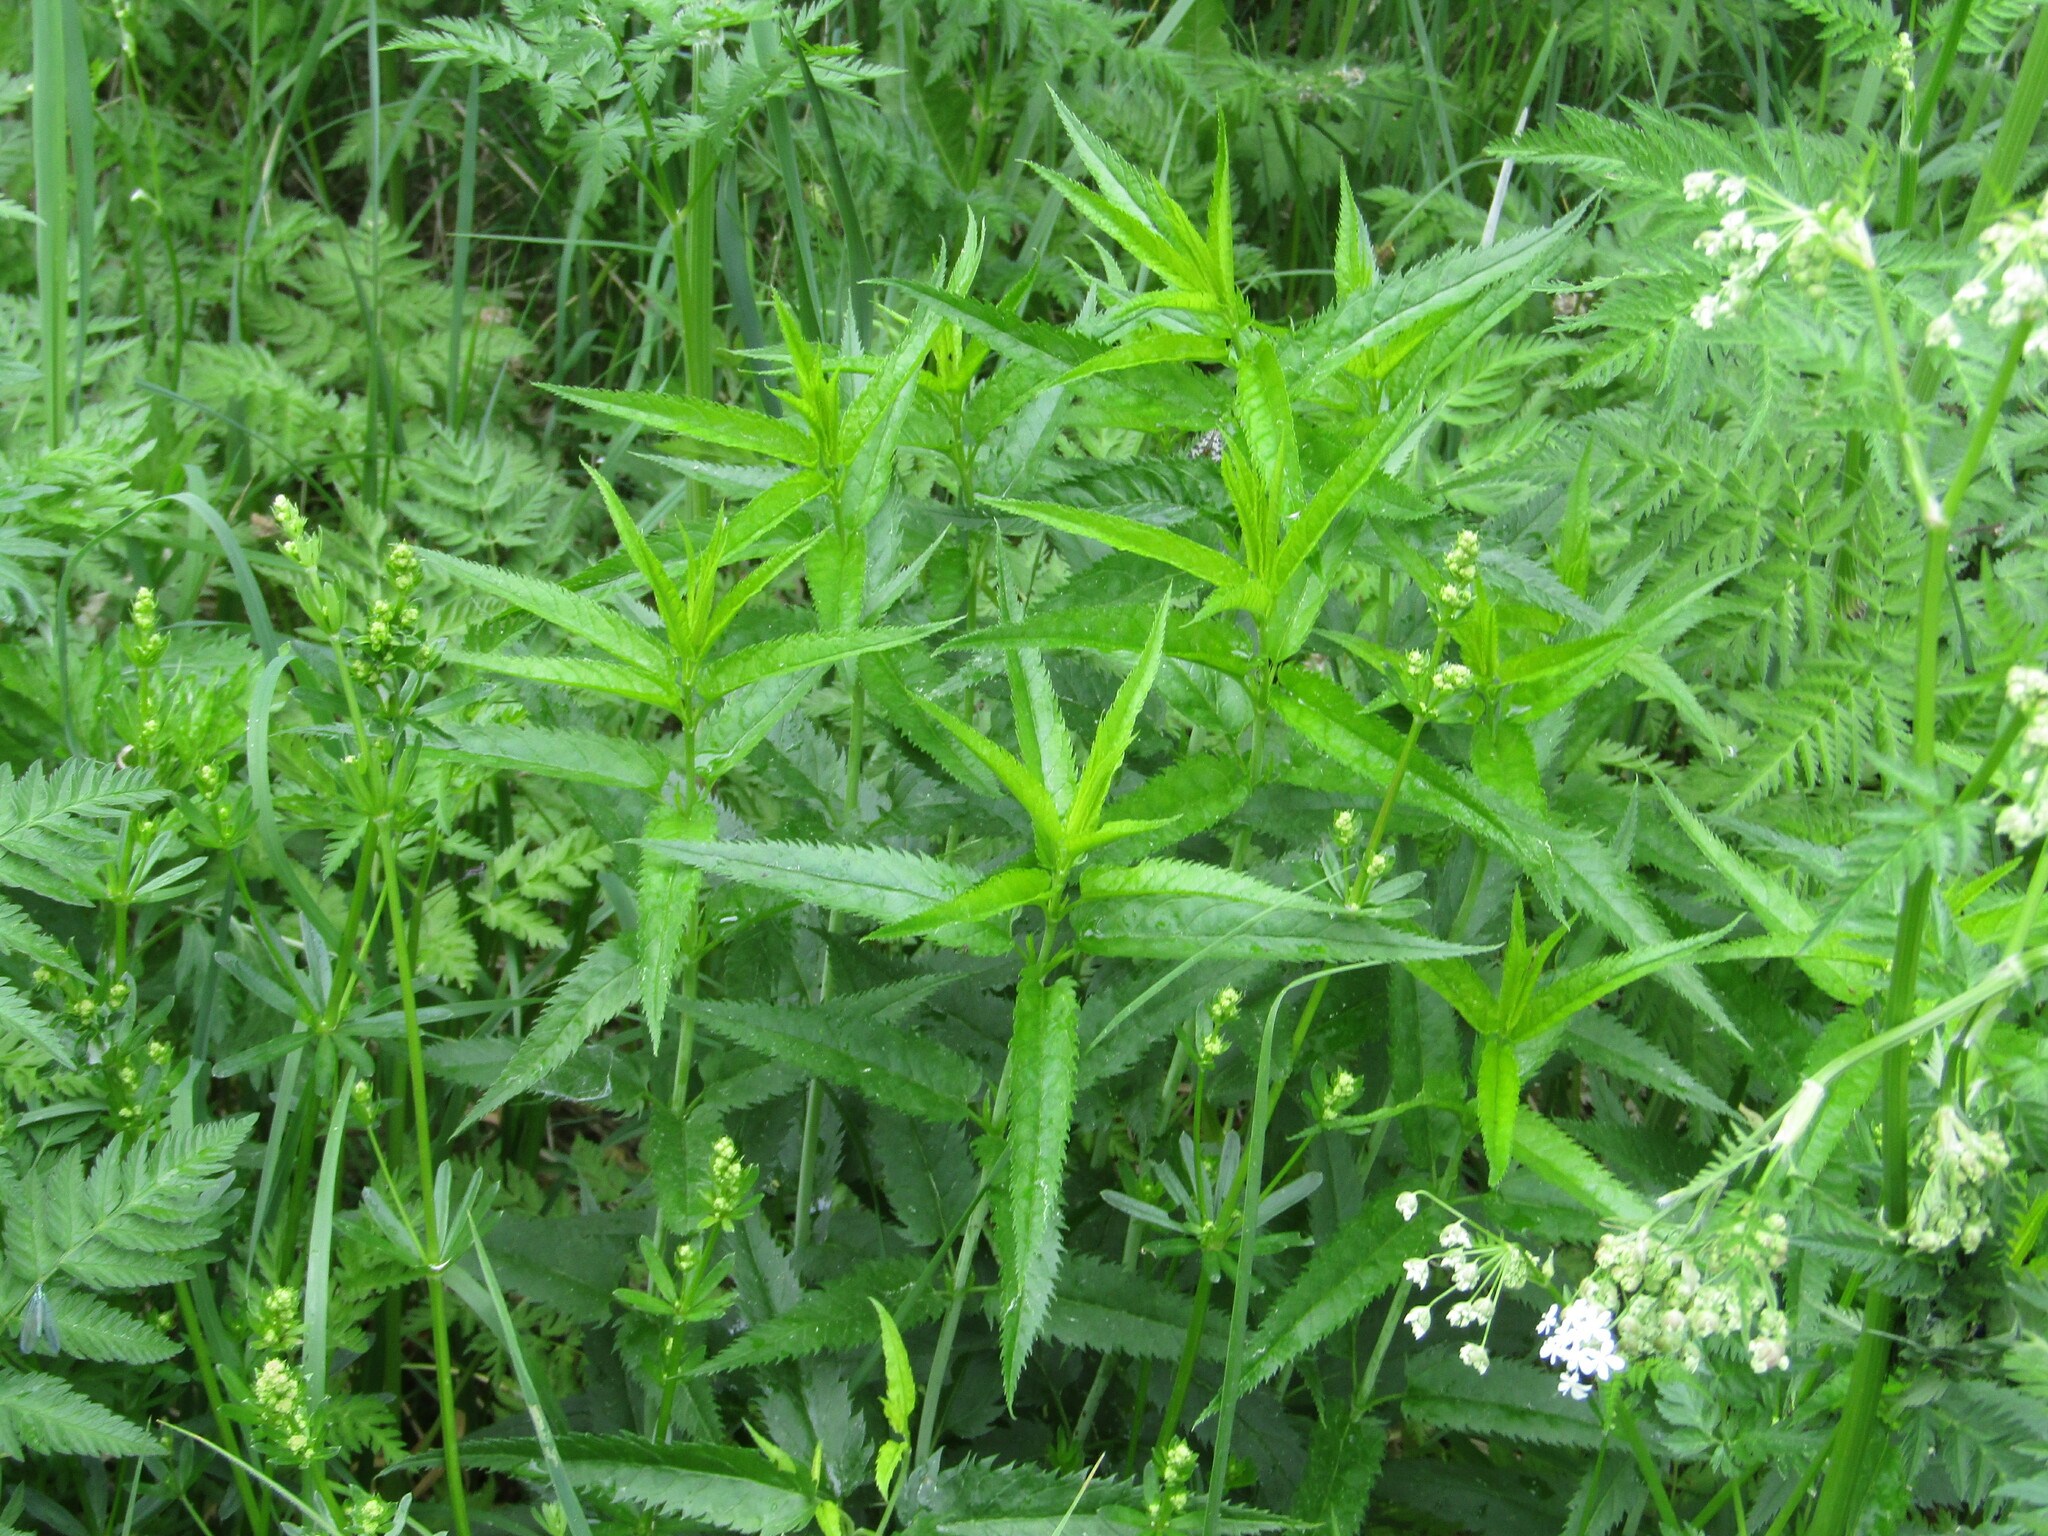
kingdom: Plantae
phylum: Tracheophyta
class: Magnoliopsida
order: Lamiales
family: Plantaginaceae
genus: Veronica
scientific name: Veronica longifolia
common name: Garden speedwell
